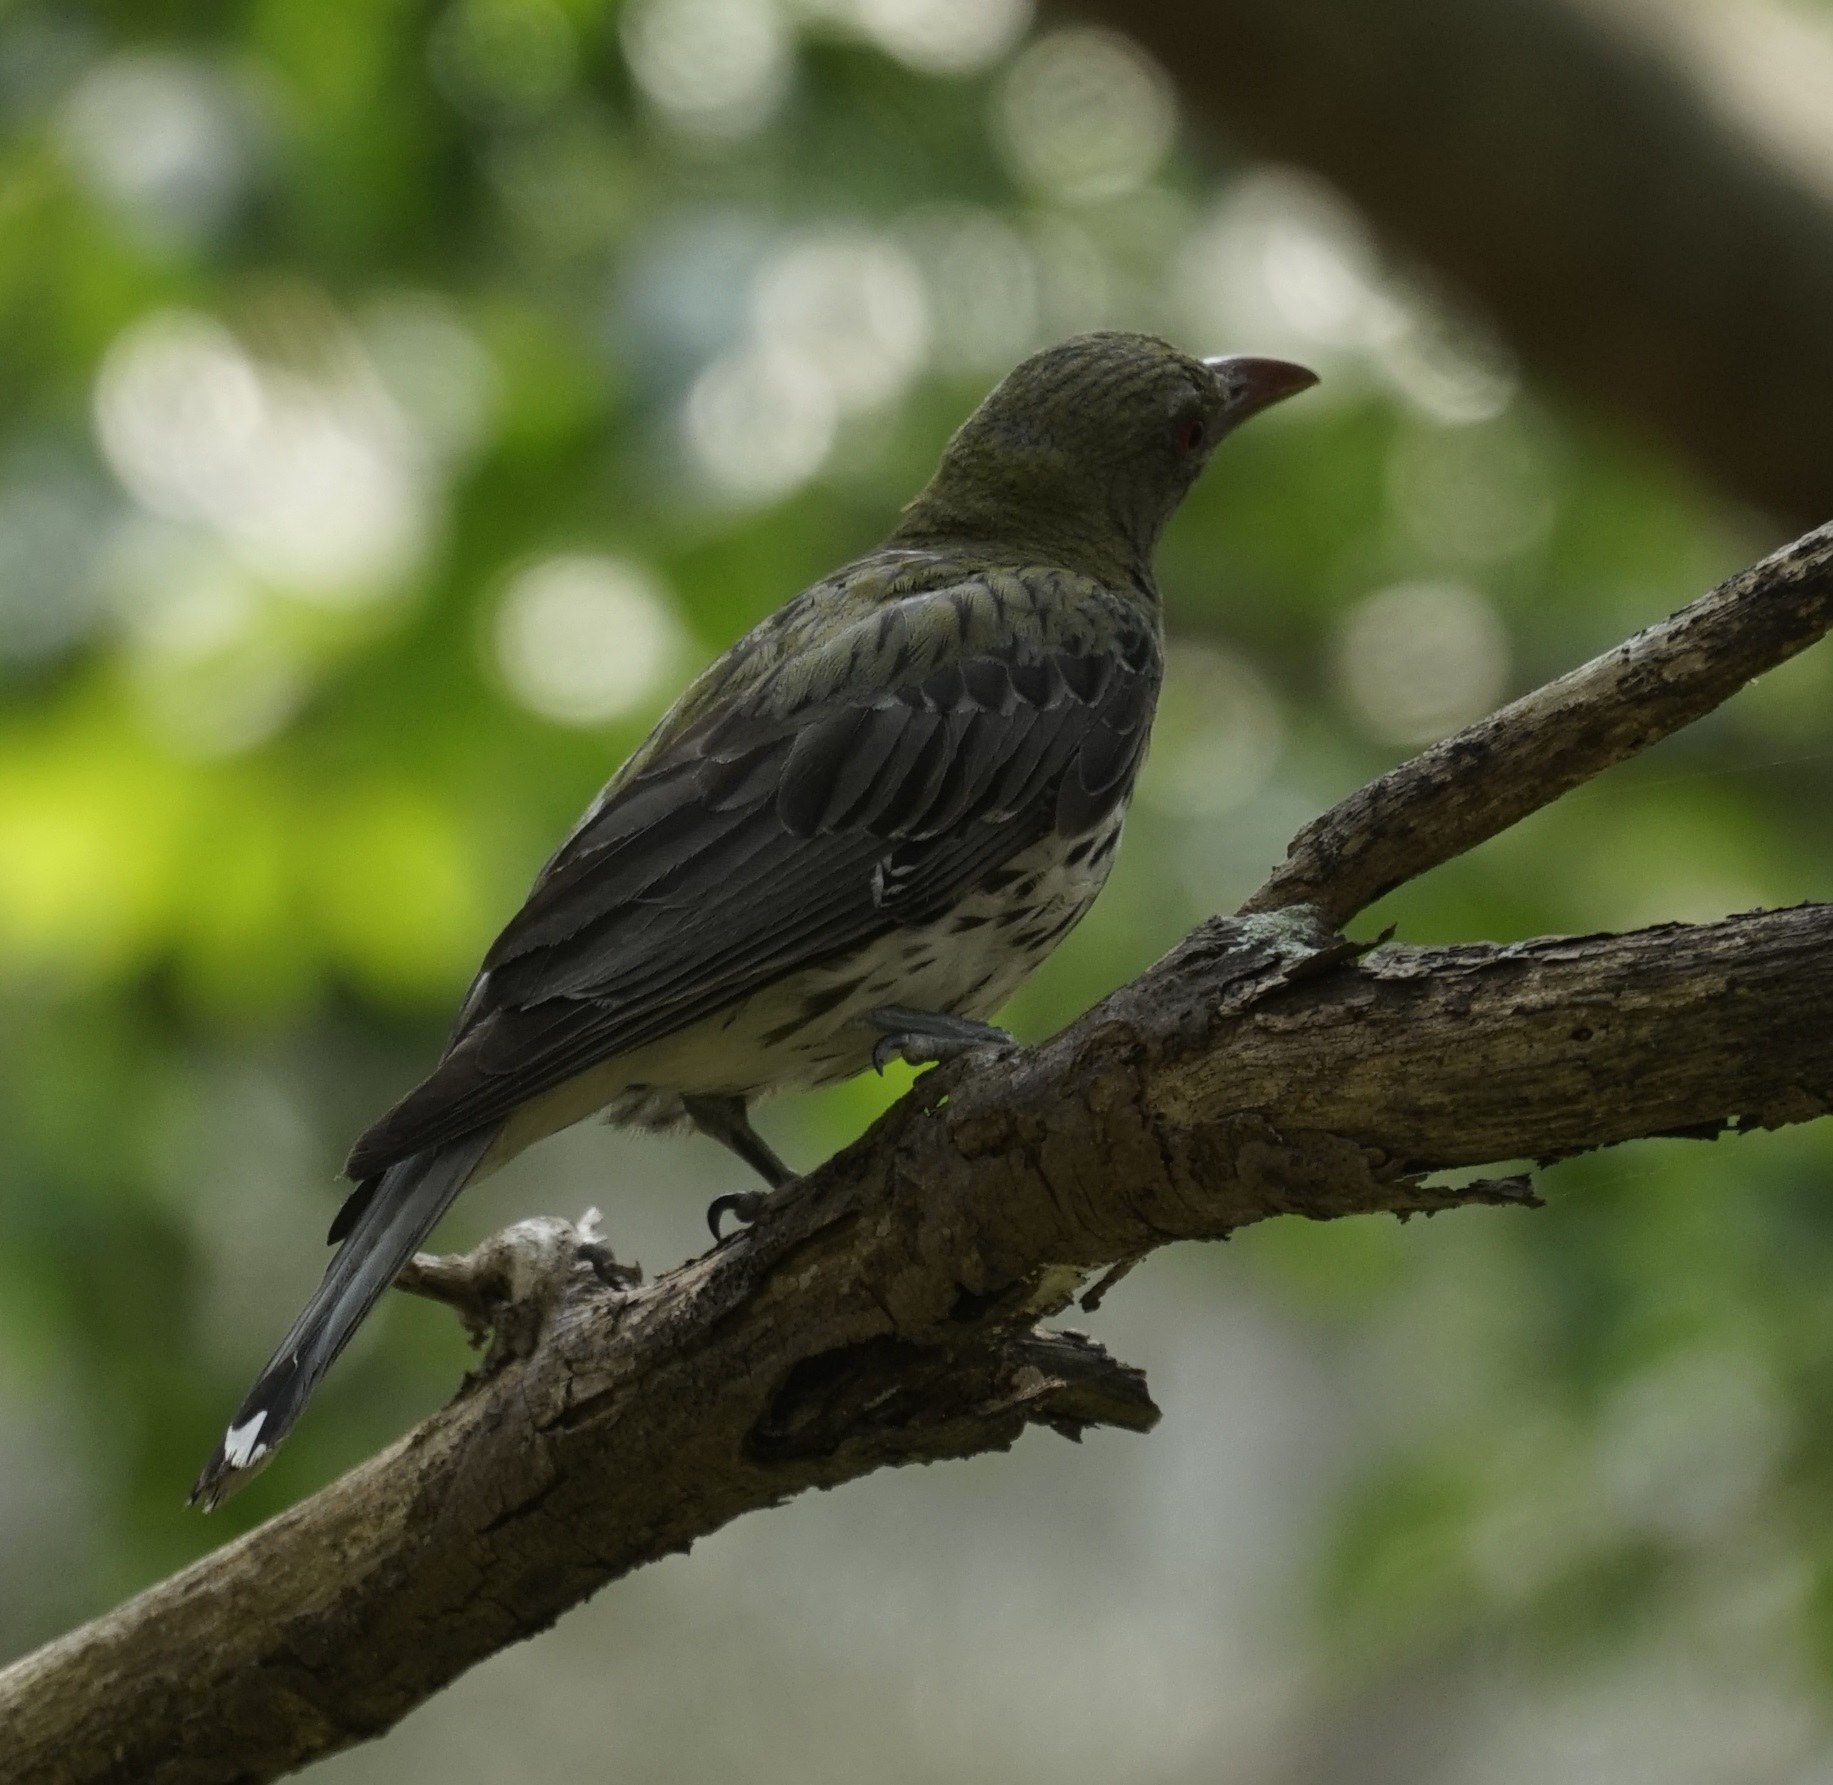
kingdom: Animalia
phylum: Chordata
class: Aves
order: Passeriformes
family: Oriolidae
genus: Oriolus
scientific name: Oriolus sagittatus
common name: Olive-backed oriole
